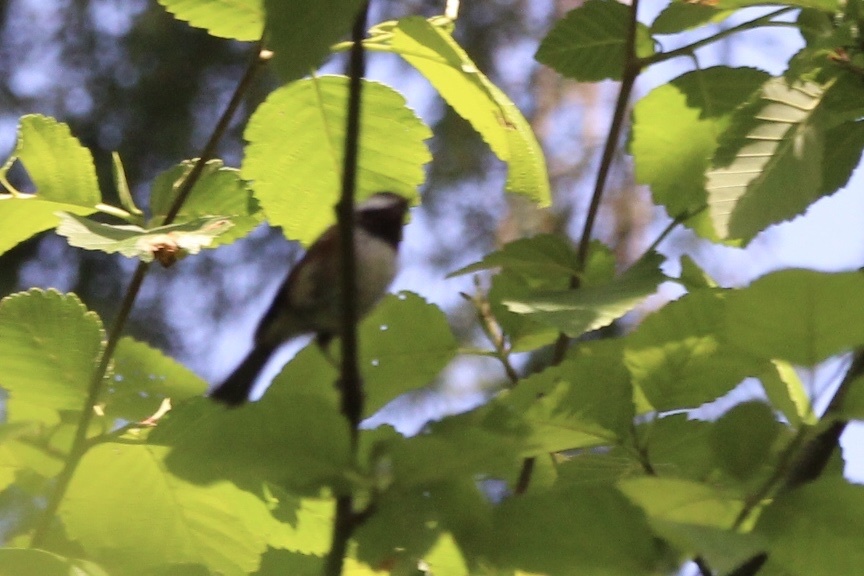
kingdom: Animalia
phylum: Chordata
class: Aves
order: Passeriformes
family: Paridae
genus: Poecile
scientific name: Poecile rufescens
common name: Chestnut-backed chickadee
